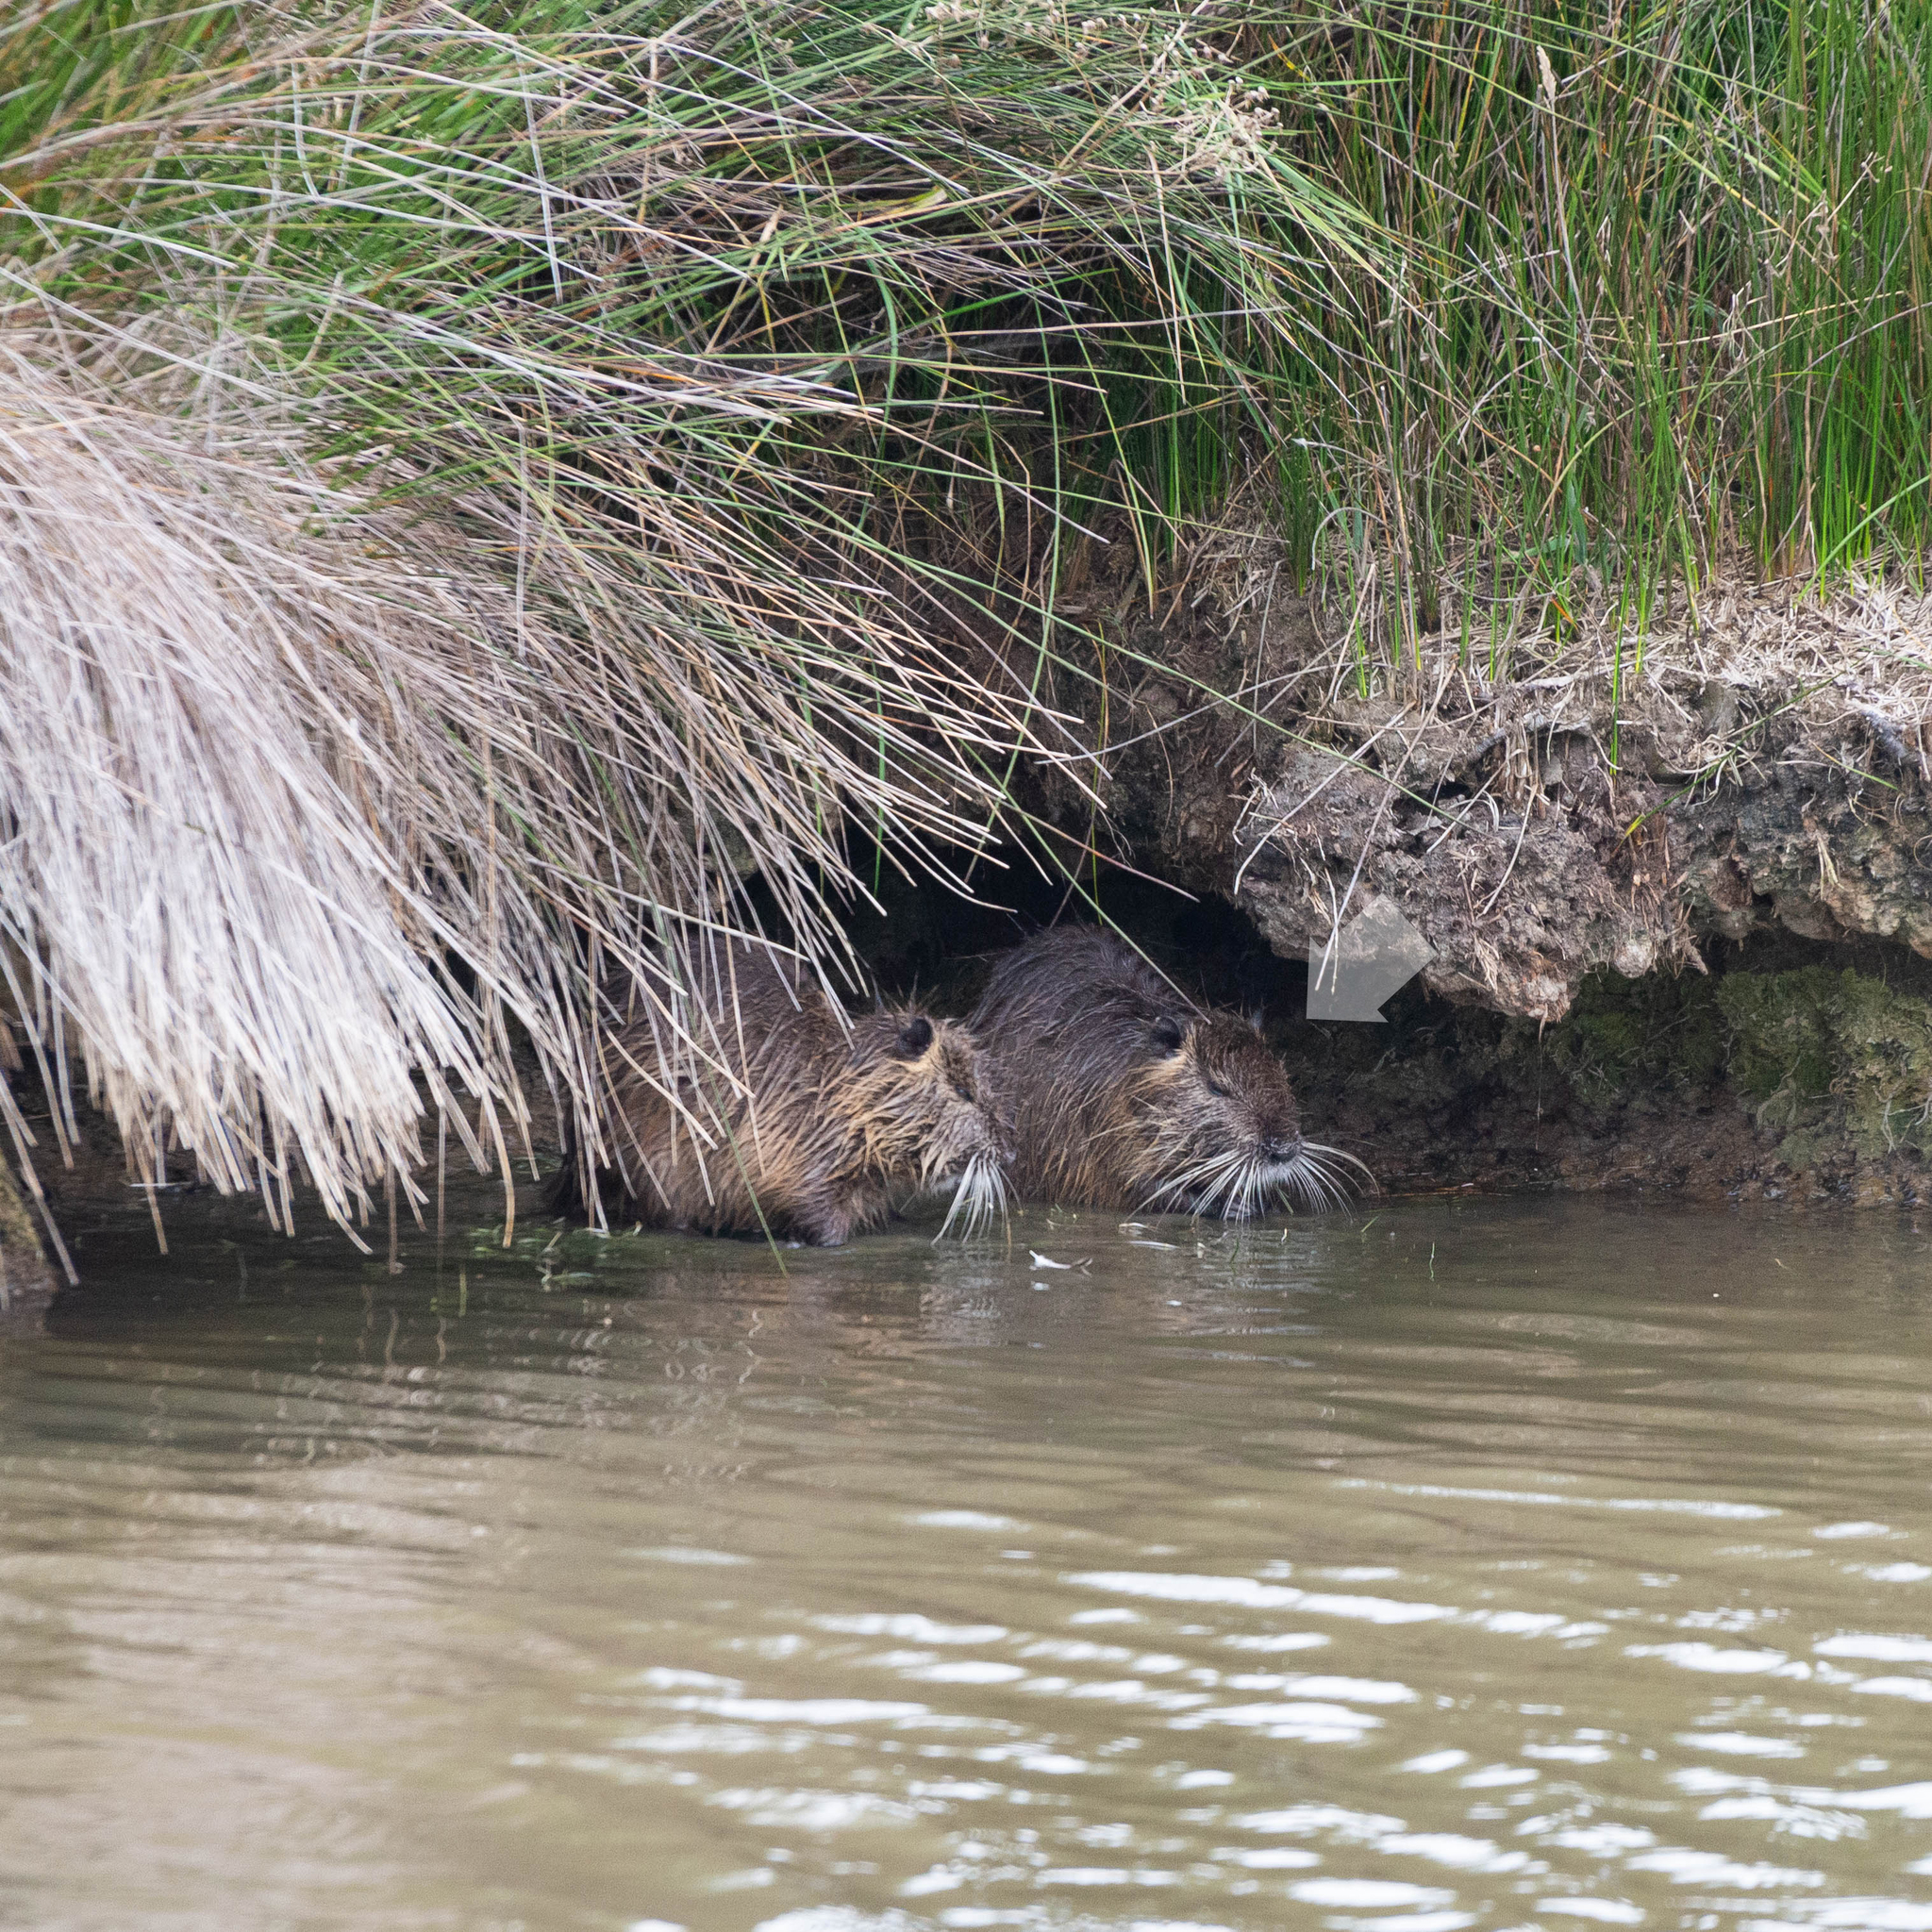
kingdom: Animalia
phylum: Chordata
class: Mammalia
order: Rodentia
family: Myocastoridae
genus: Myocastor
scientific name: Myocastor coypus
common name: Coypu
